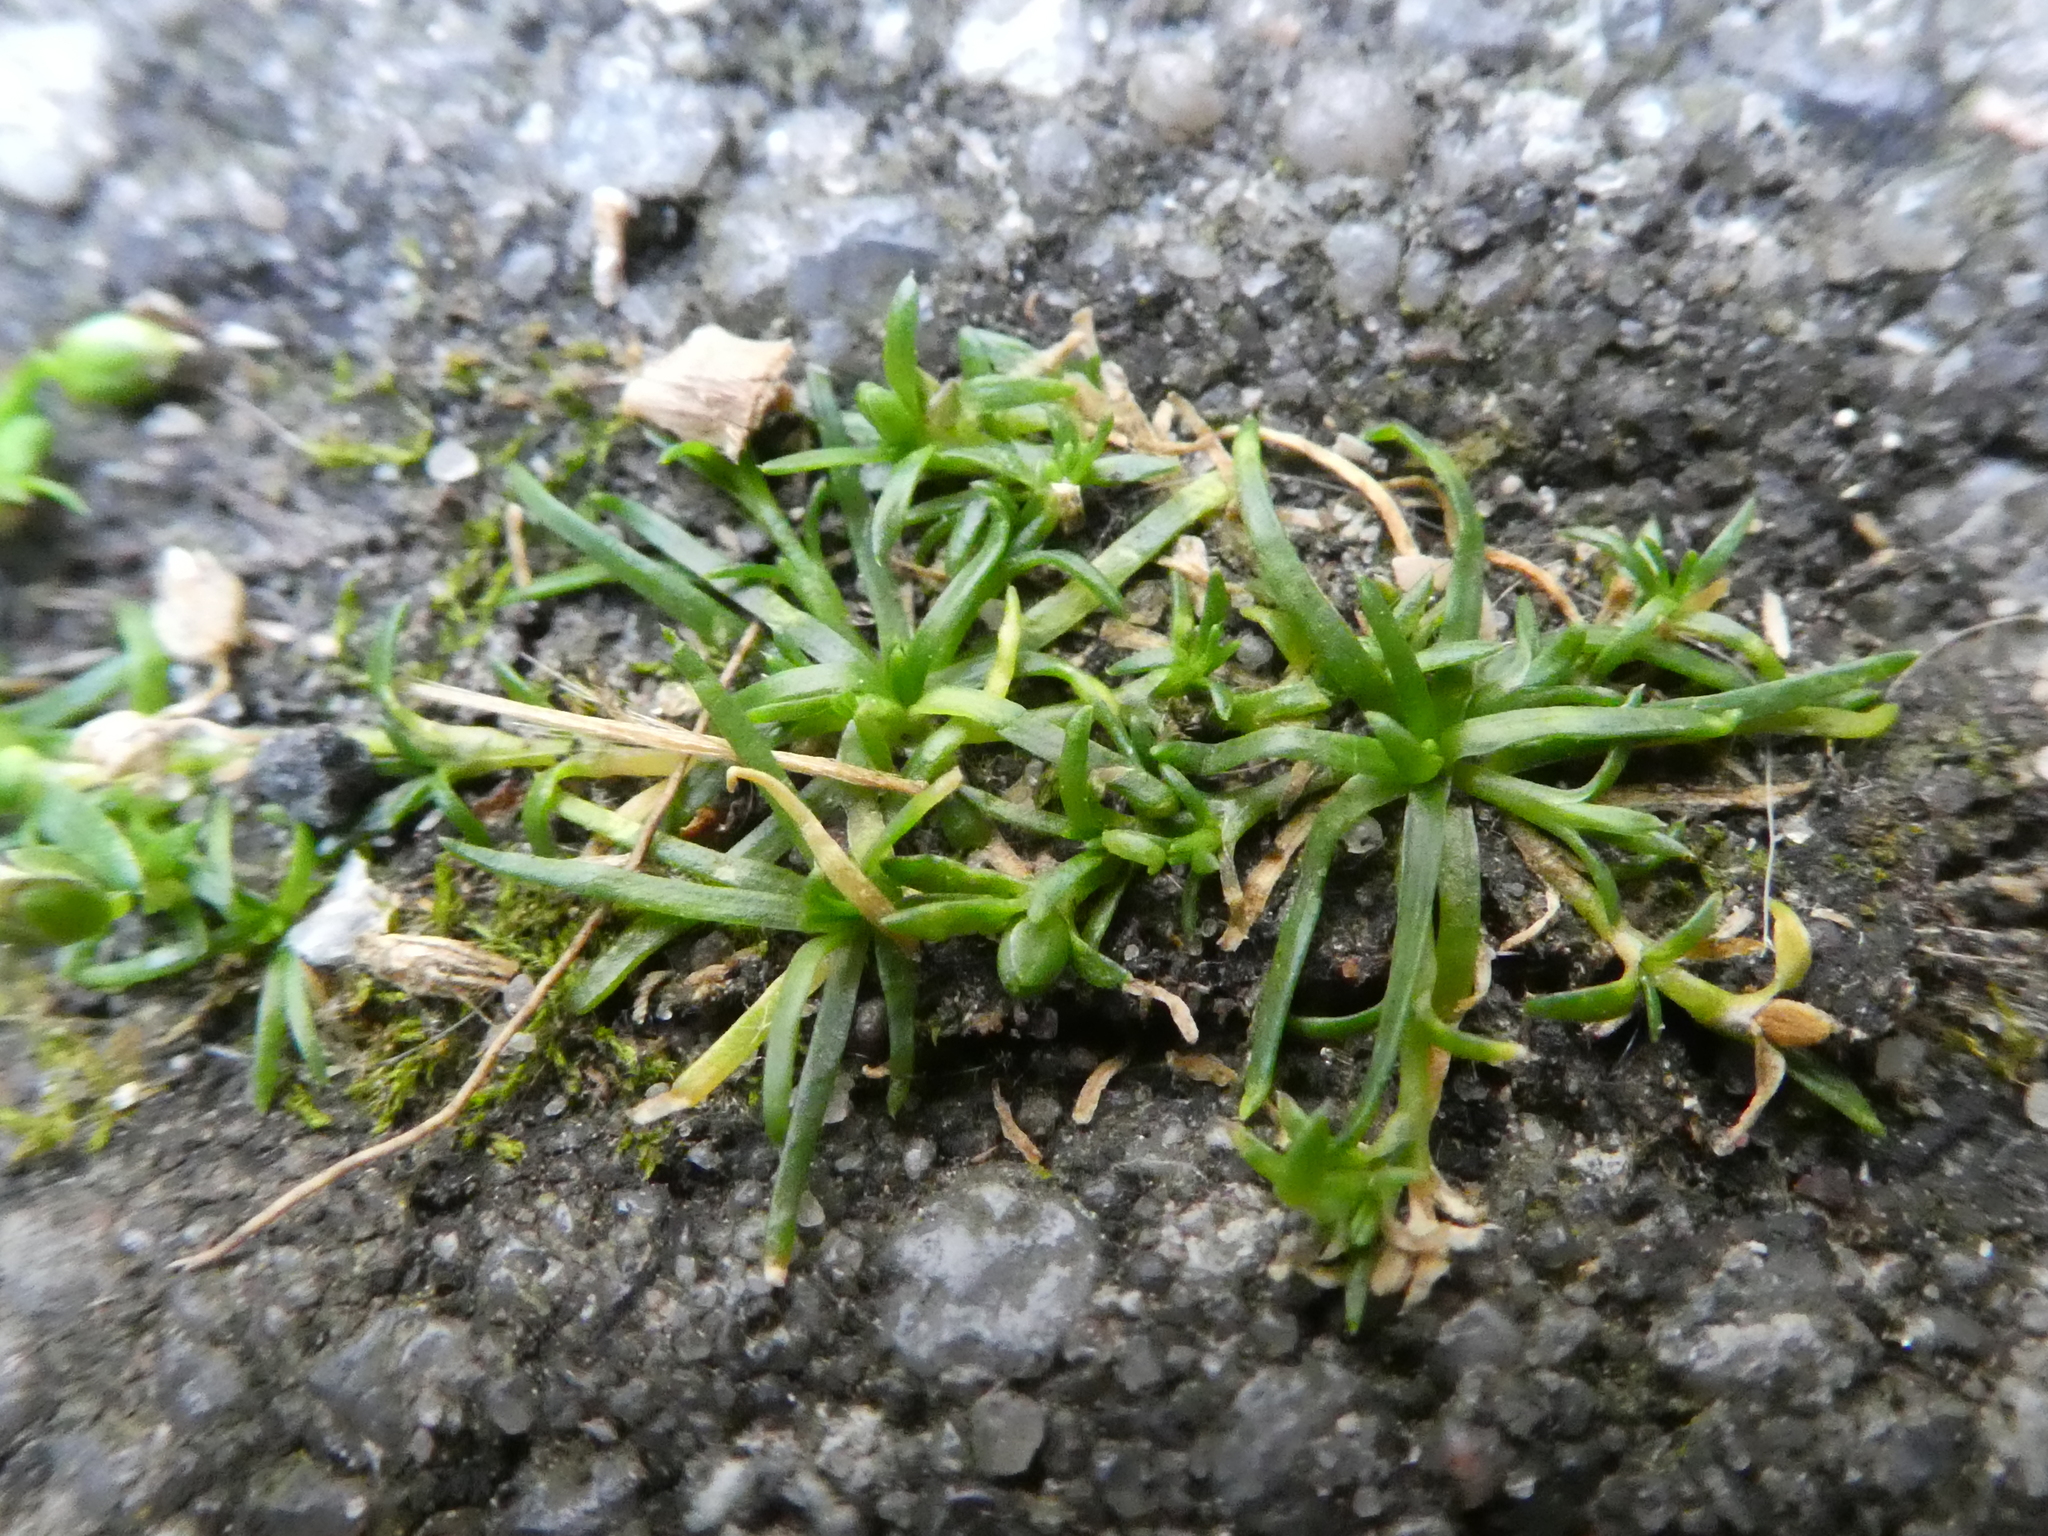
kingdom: Plantae
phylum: Tracheophyta
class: Magnoliopsida
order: Caryophyllales
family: Caryophyllaceae
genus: Sagina
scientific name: Sagina procumbens
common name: Procumbent pearlwort
